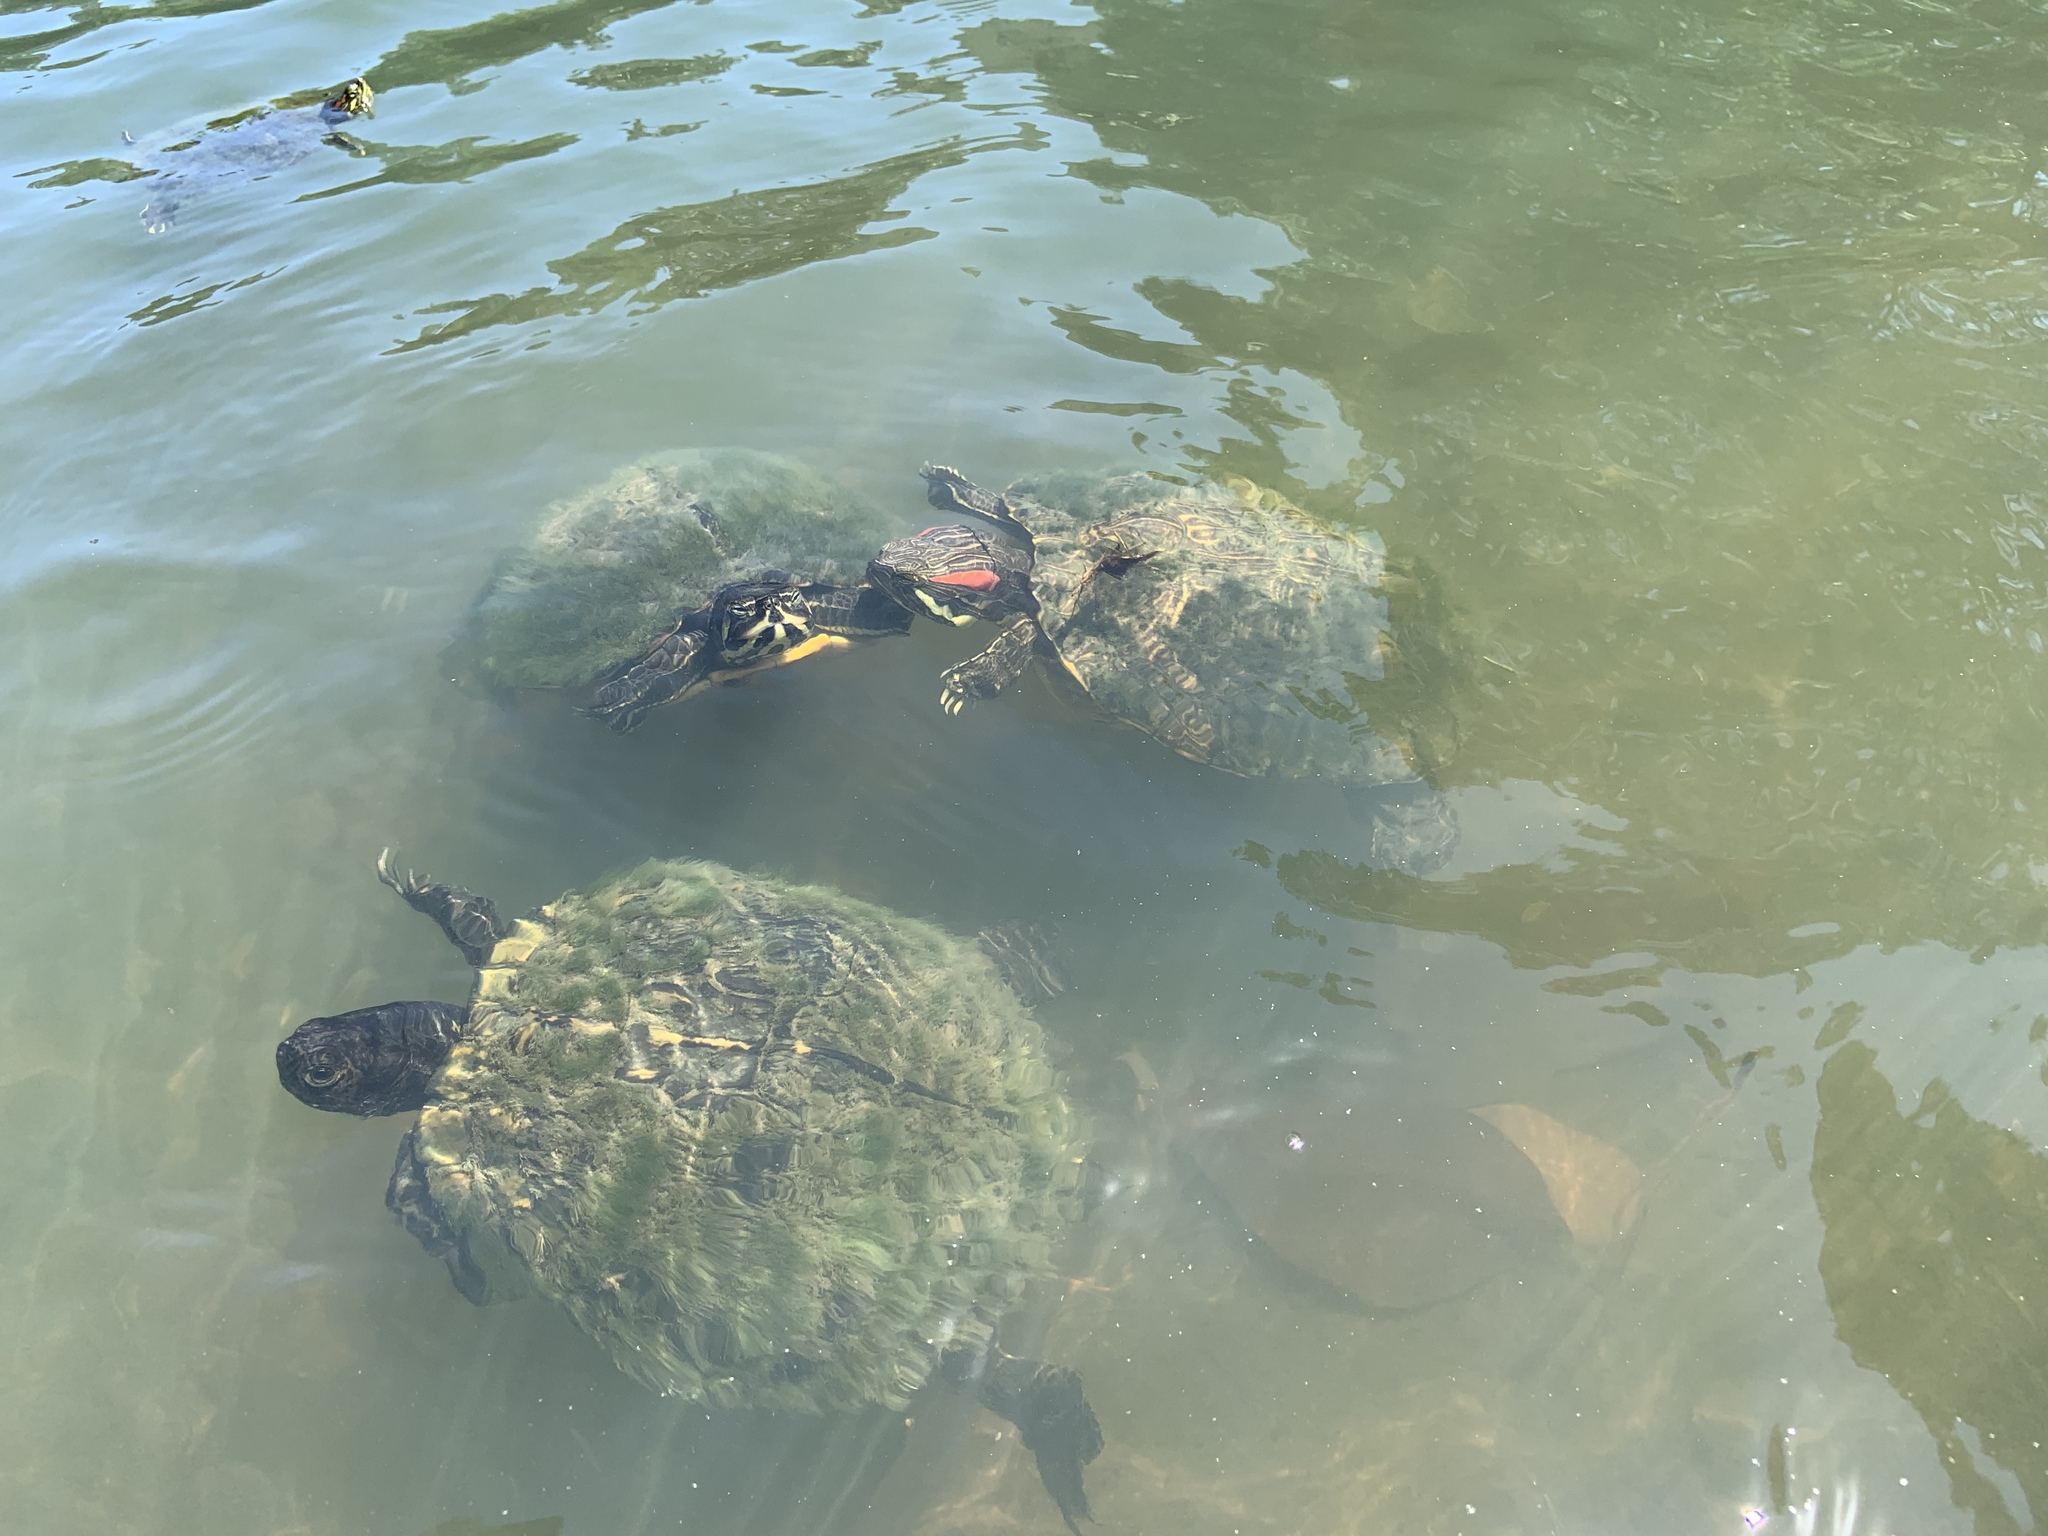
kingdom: Animalia
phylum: Chordata
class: Testudines
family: Emydidae
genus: Trachemys
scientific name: Trachemys scripta
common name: Slider
